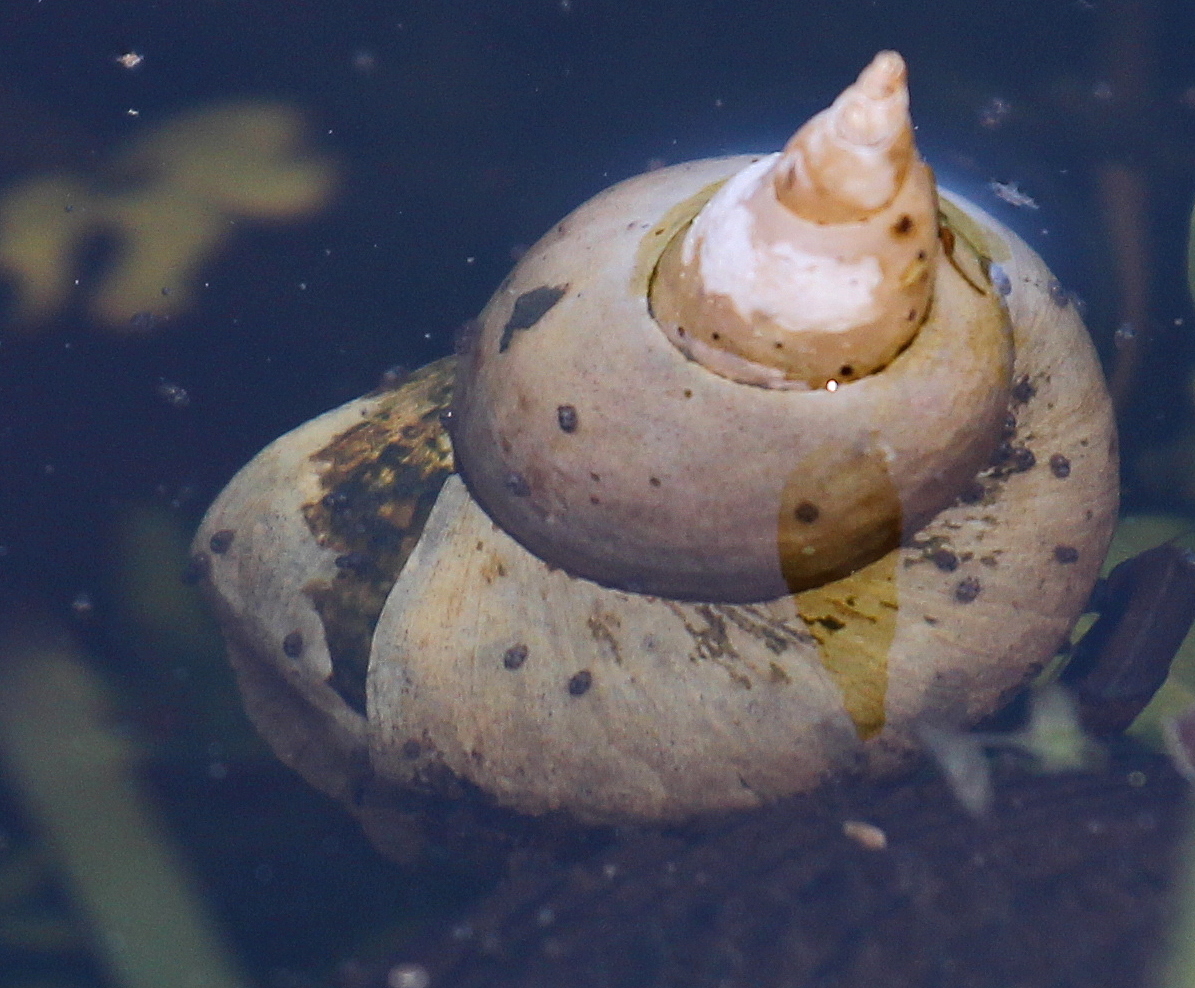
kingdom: Animalia
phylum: Mollusca
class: Gastropoda
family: Lymnaeidae
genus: Lymnaea
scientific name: Lymnaea stagnalis
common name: Great pond snail
